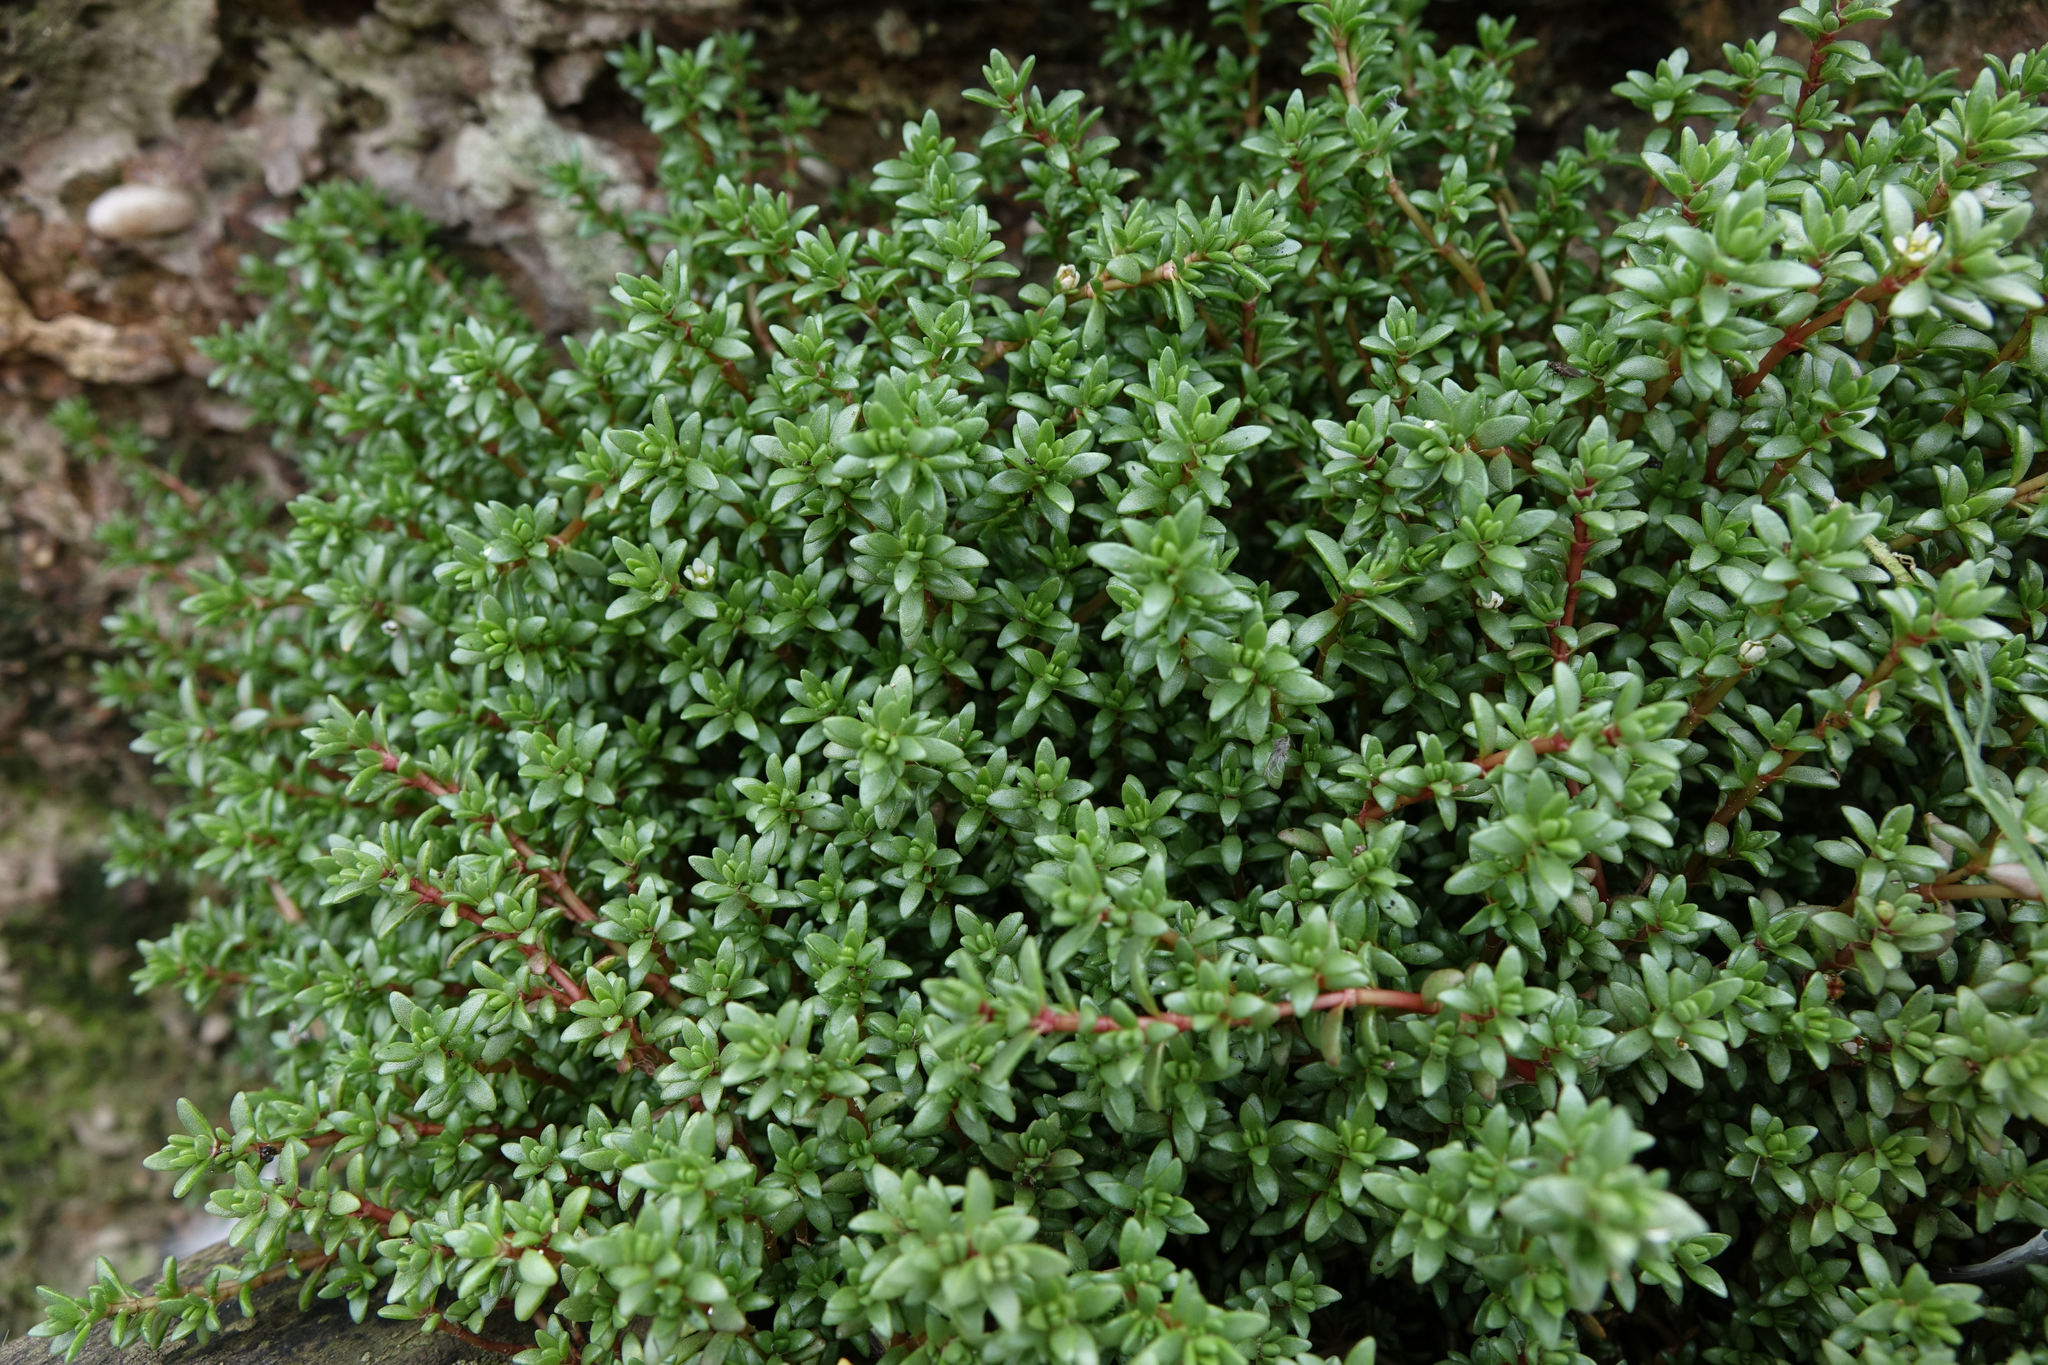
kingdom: Plantae
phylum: Tracheophyta
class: Magnoliopsida
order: Saxifragales
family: Crassulaceae
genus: Crassula
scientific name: Crassula moschata
